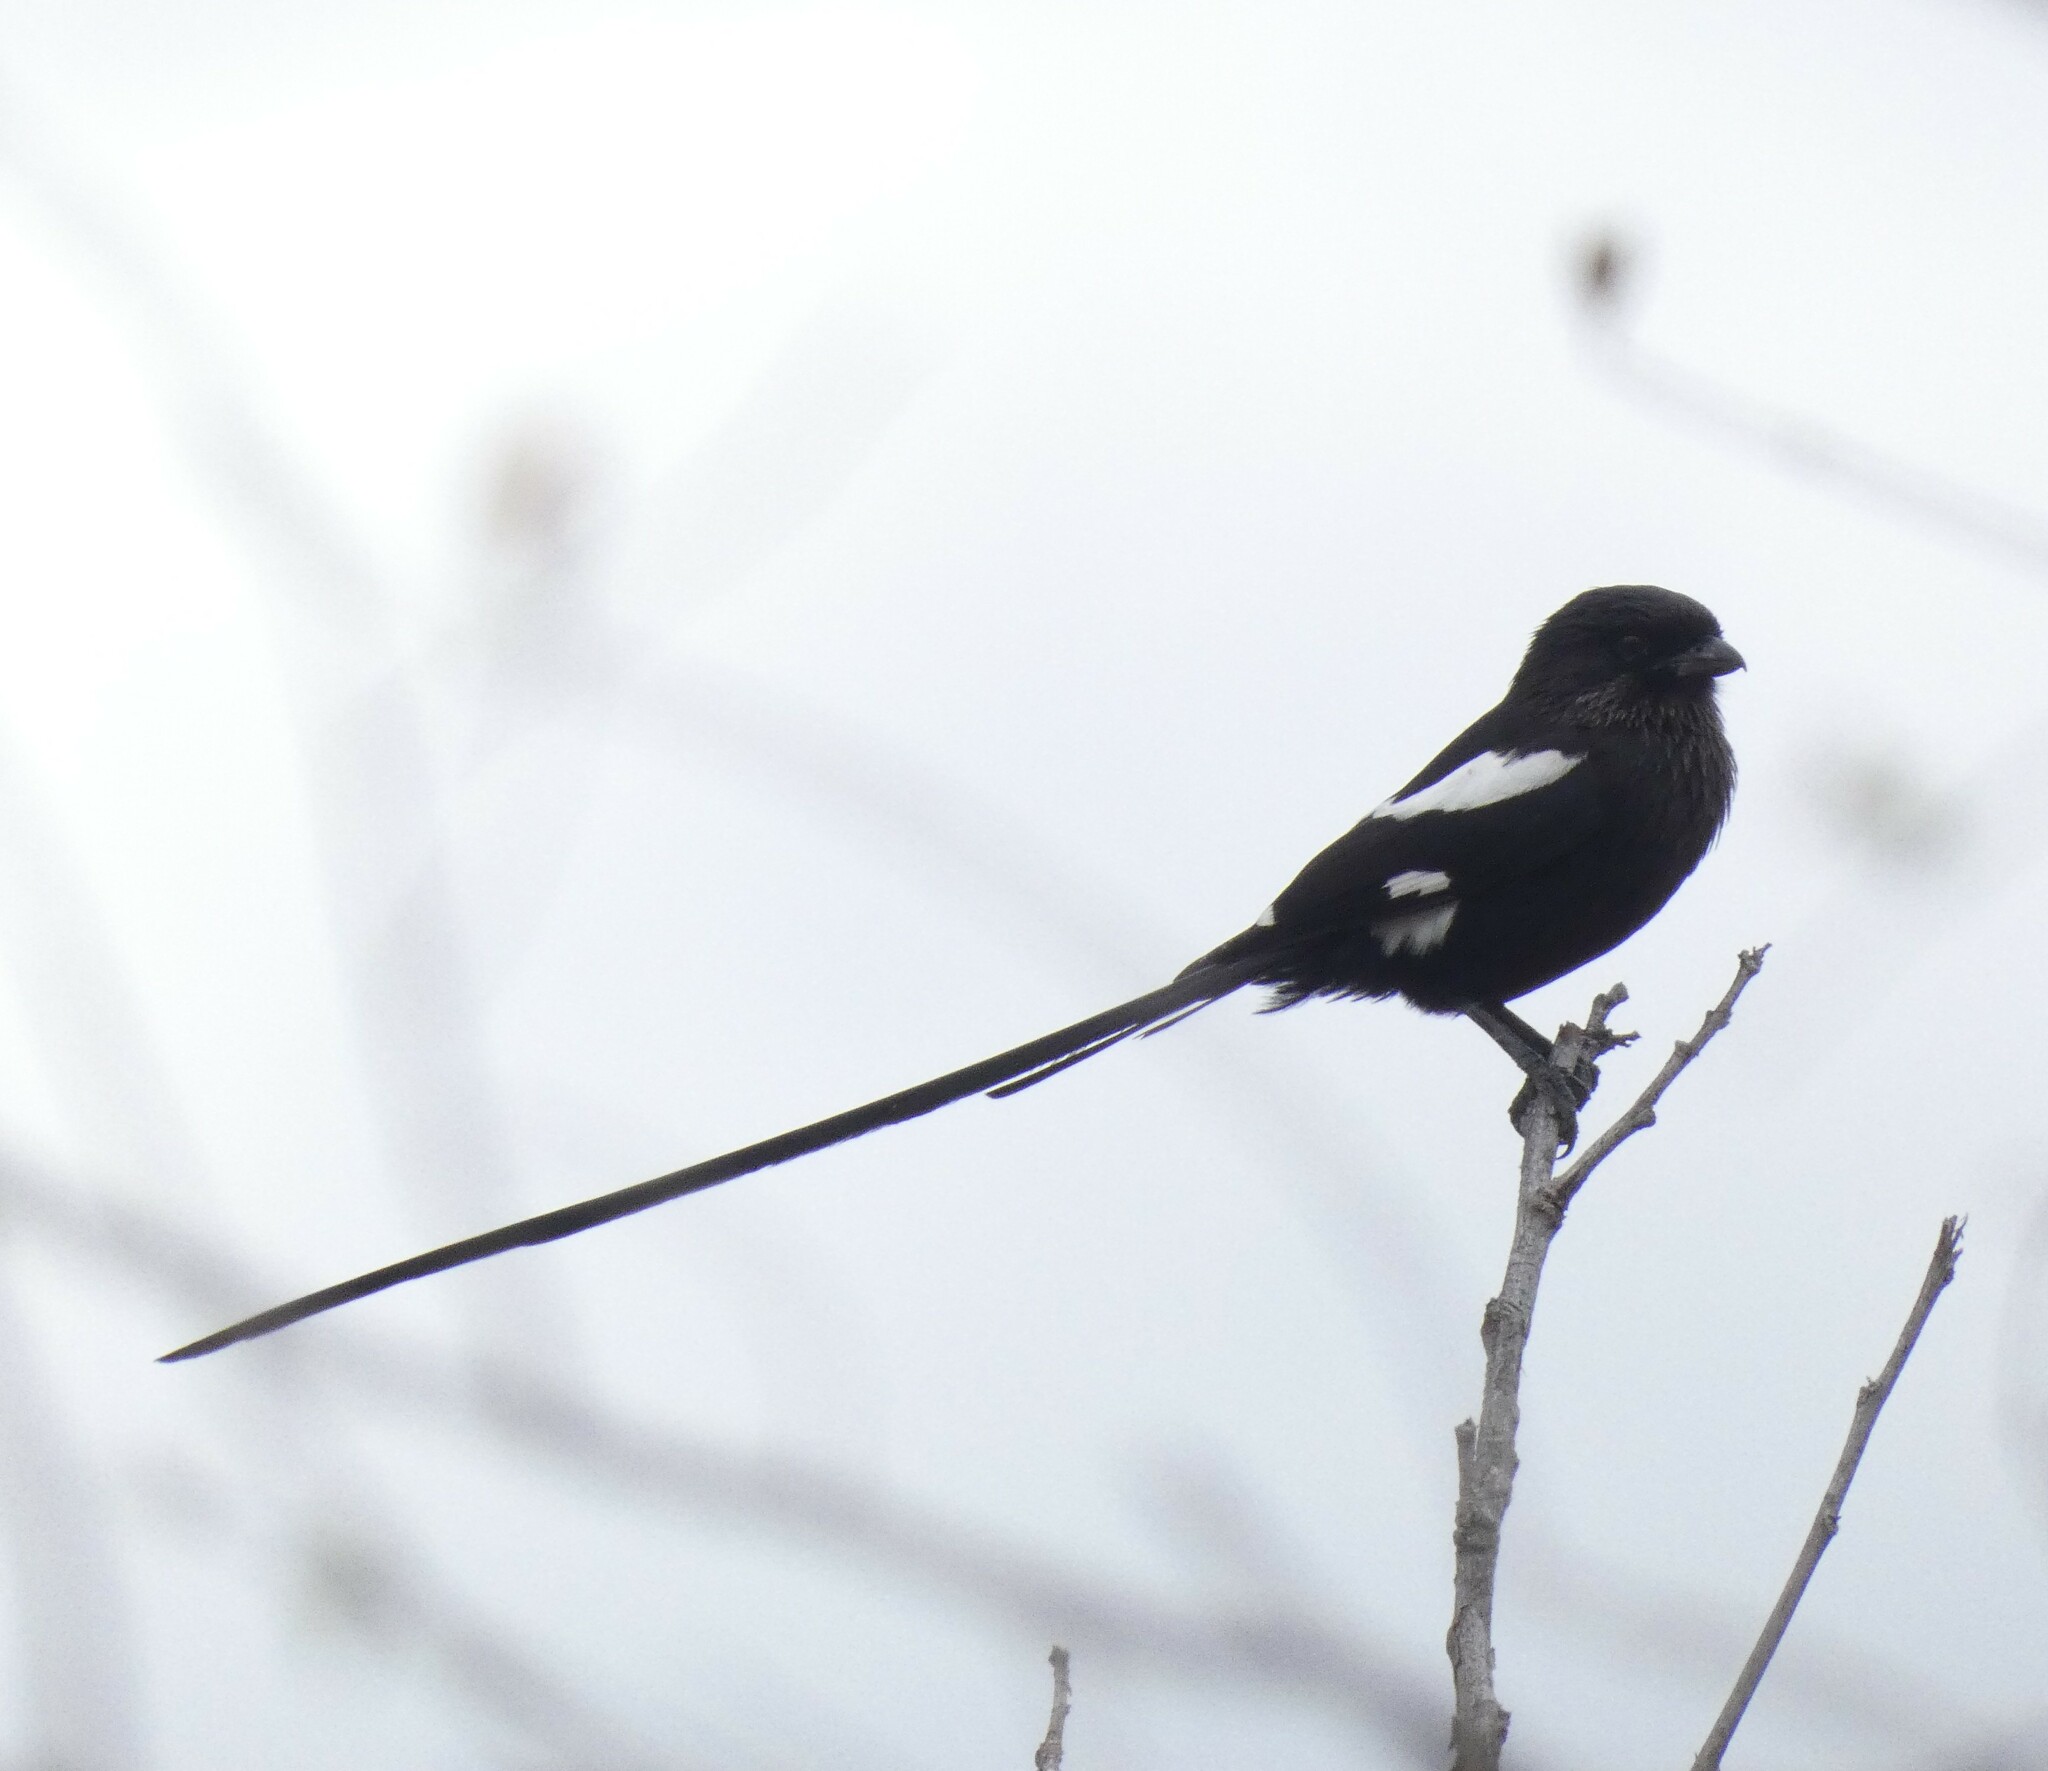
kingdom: Animalia
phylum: Chordata
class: Aves
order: Passeriformes
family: Laniidae
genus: Urolestes
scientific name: Urolestes melanoleucus
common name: Magpie shrike
